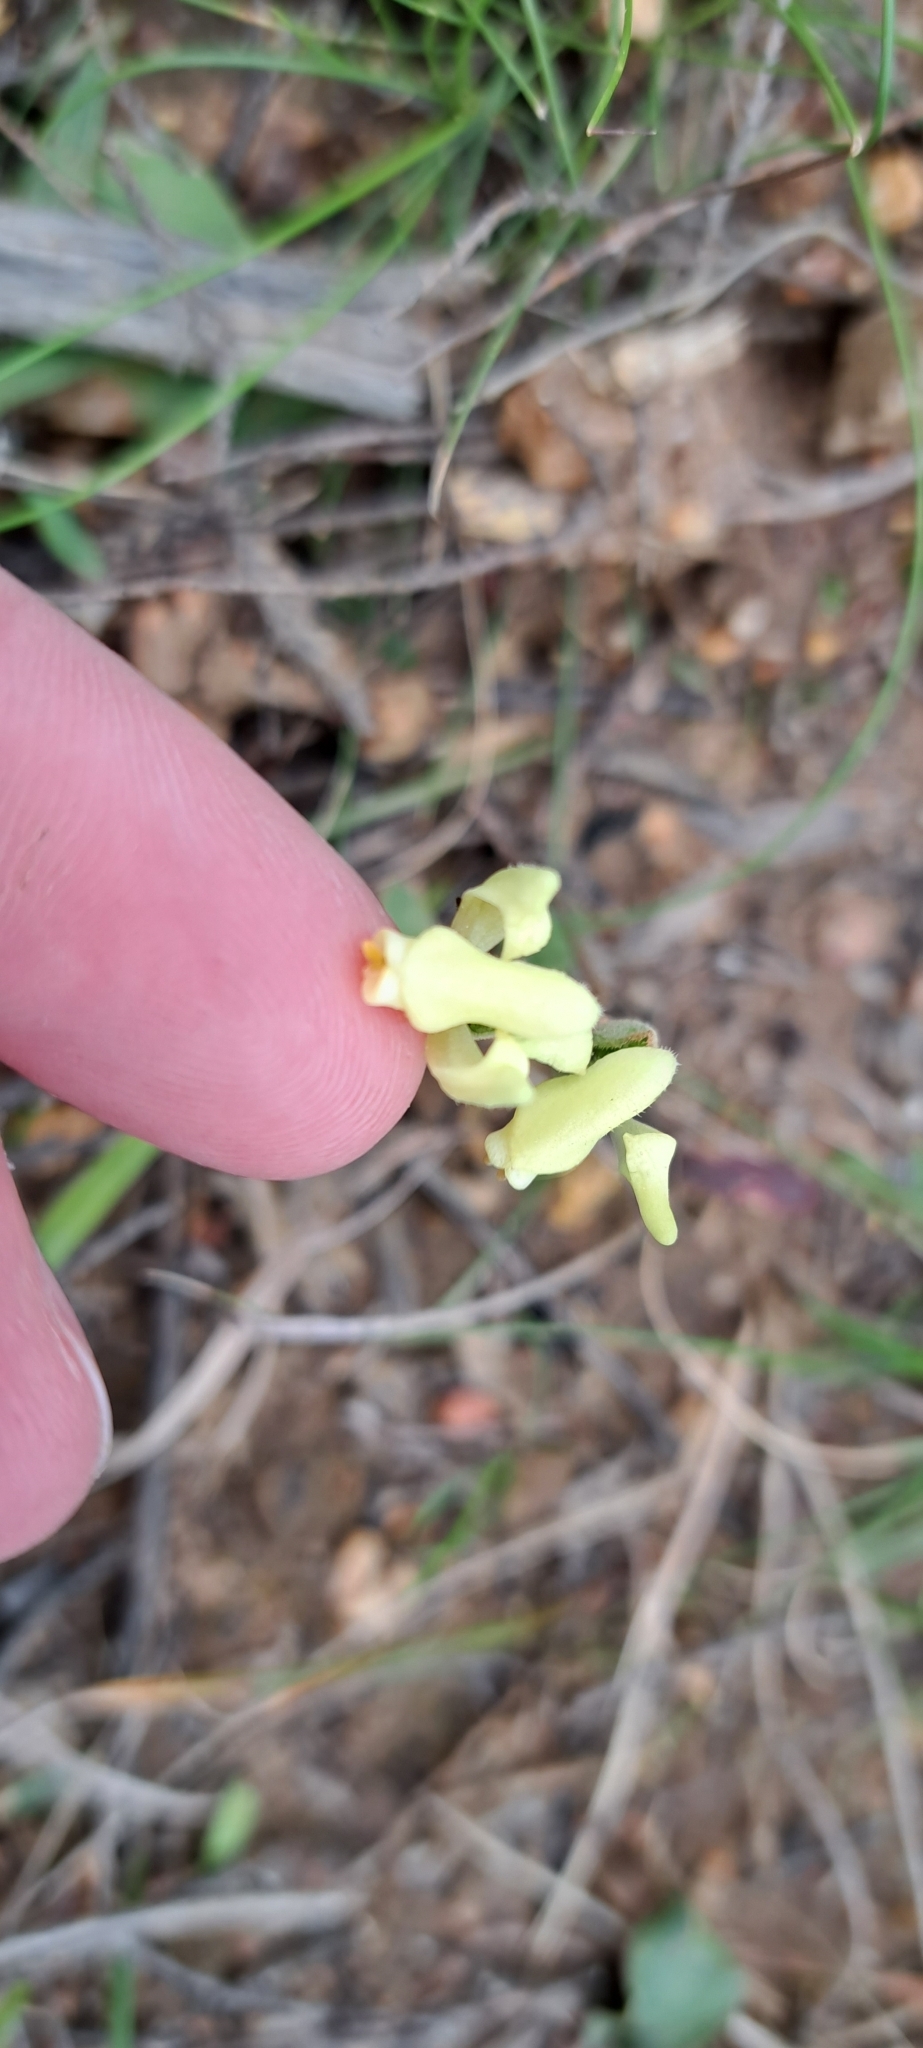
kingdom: Plantae
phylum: Tracheophyta
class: Liliopsida
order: Asparagales
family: Orchidaceae
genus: Disperis
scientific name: Disperis villosa
